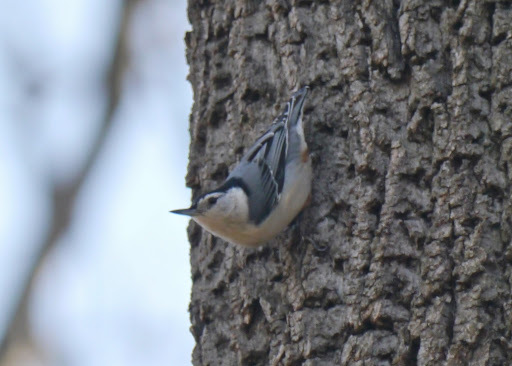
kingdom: Animalia
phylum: Chordata
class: Aves
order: Passeriformes
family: Sittidae
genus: Sitta
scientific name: Sitta carolinensis
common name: White-breasted nuthatch
